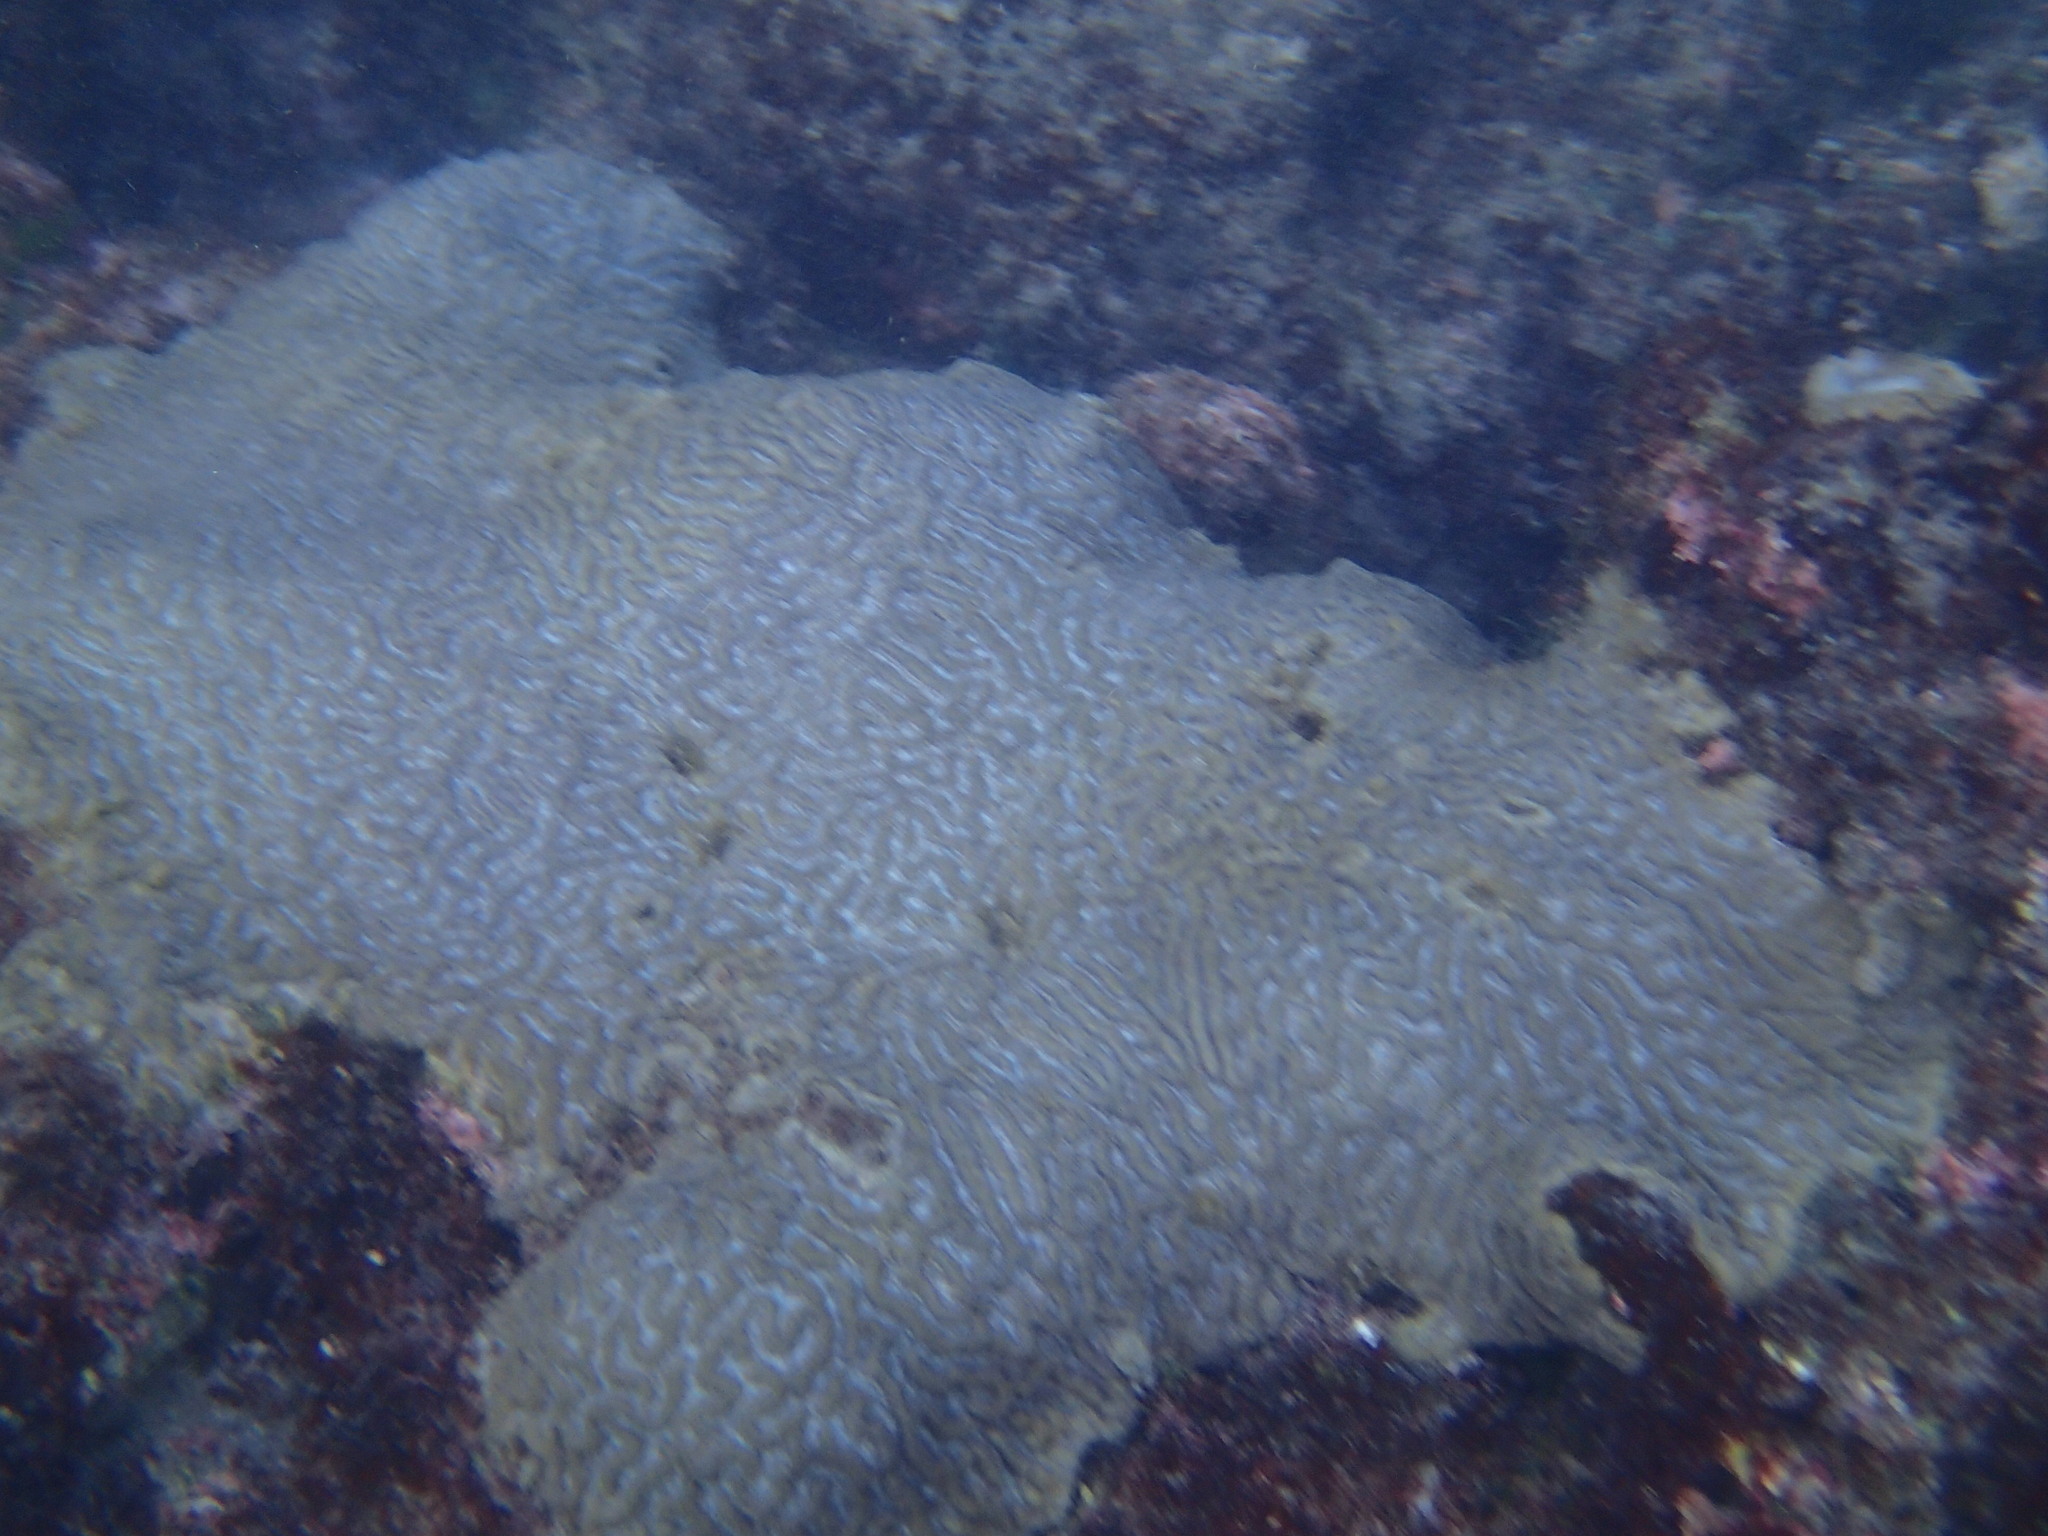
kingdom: Animalia
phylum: Cnidaria
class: Anthozoa
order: Scleractinia
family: Faviidae
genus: Pseudodiploria
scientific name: Pseudodiploria clivosa
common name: Knobby brain coral
